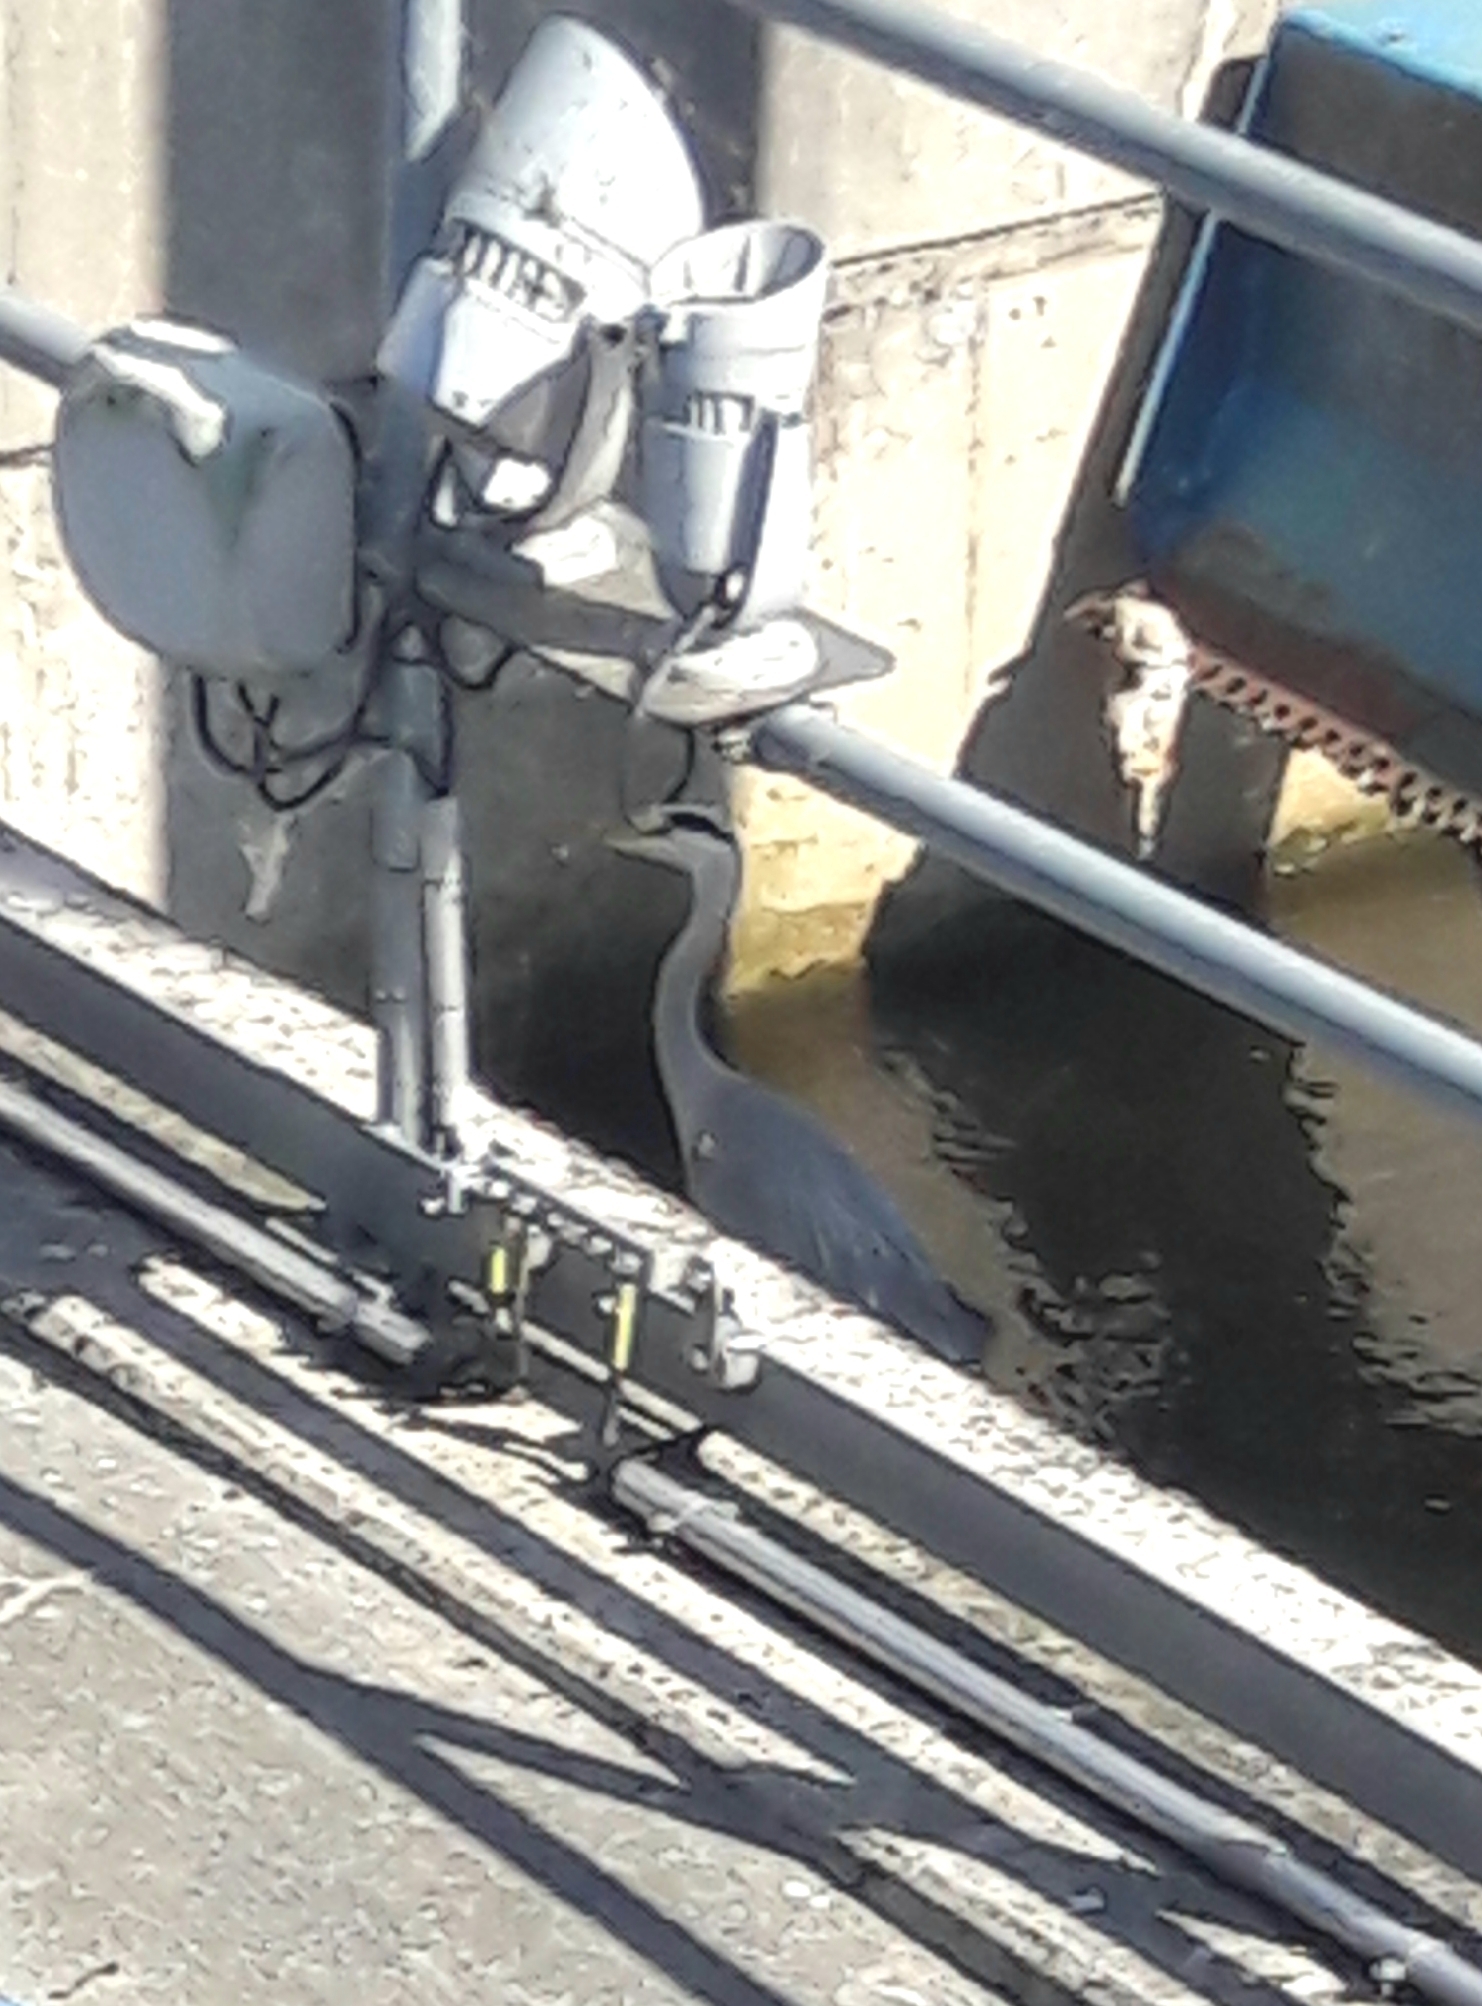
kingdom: Animalia
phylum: Chordata
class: Aves
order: Pelecaniformes
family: Ardeidae
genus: Ardea
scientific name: Ardea cinerea
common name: Grey heron
